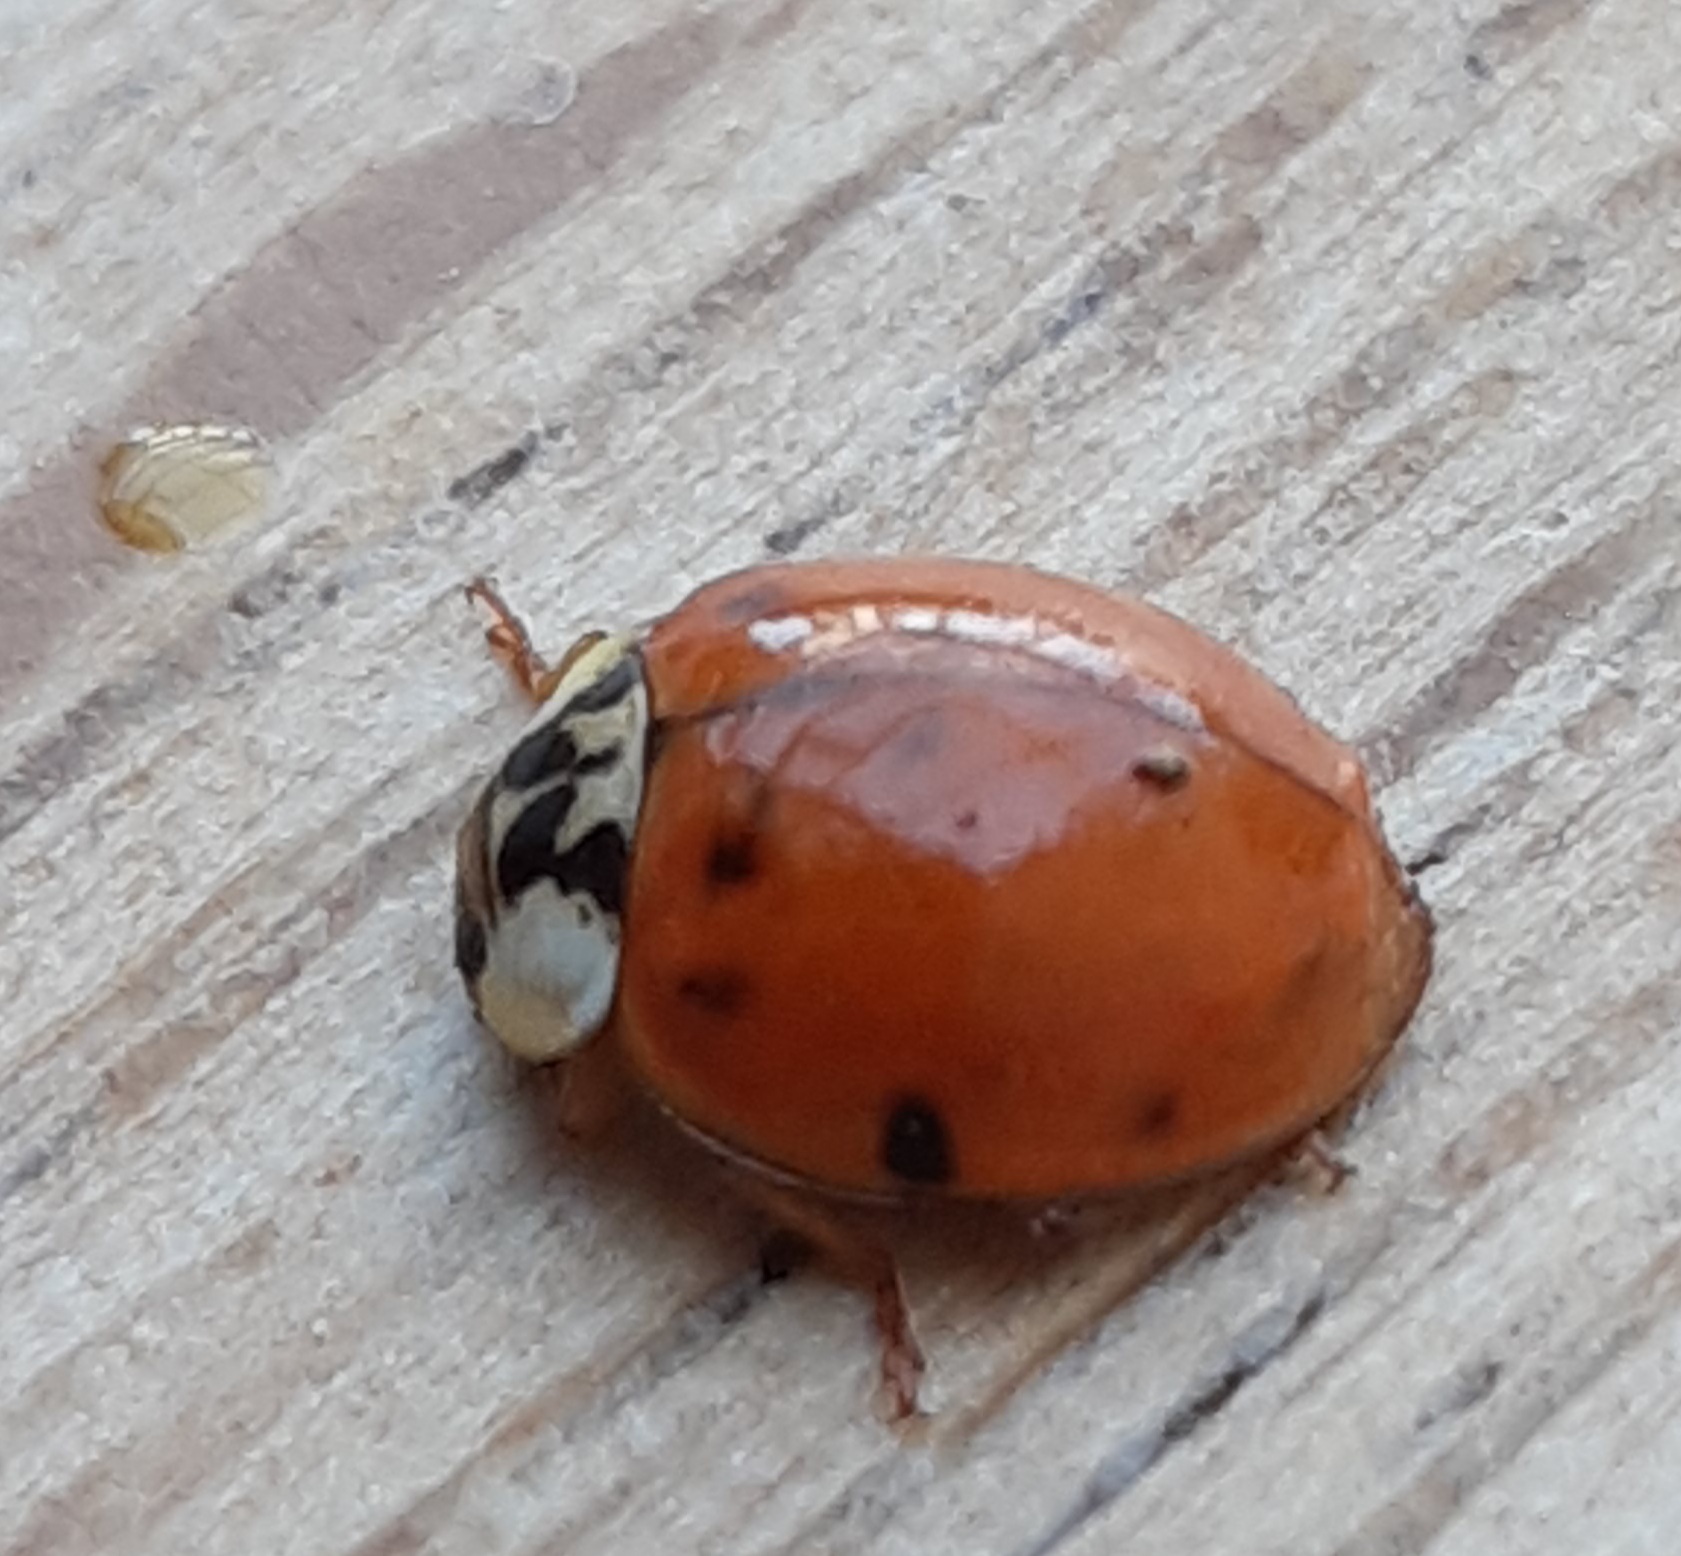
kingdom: Animalia
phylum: Arthropoda
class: Insecta
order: Coleoptera
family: Coccinellidae
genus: Harmonia
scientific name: Harmonia axyridis
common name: Harlequin ladybird
